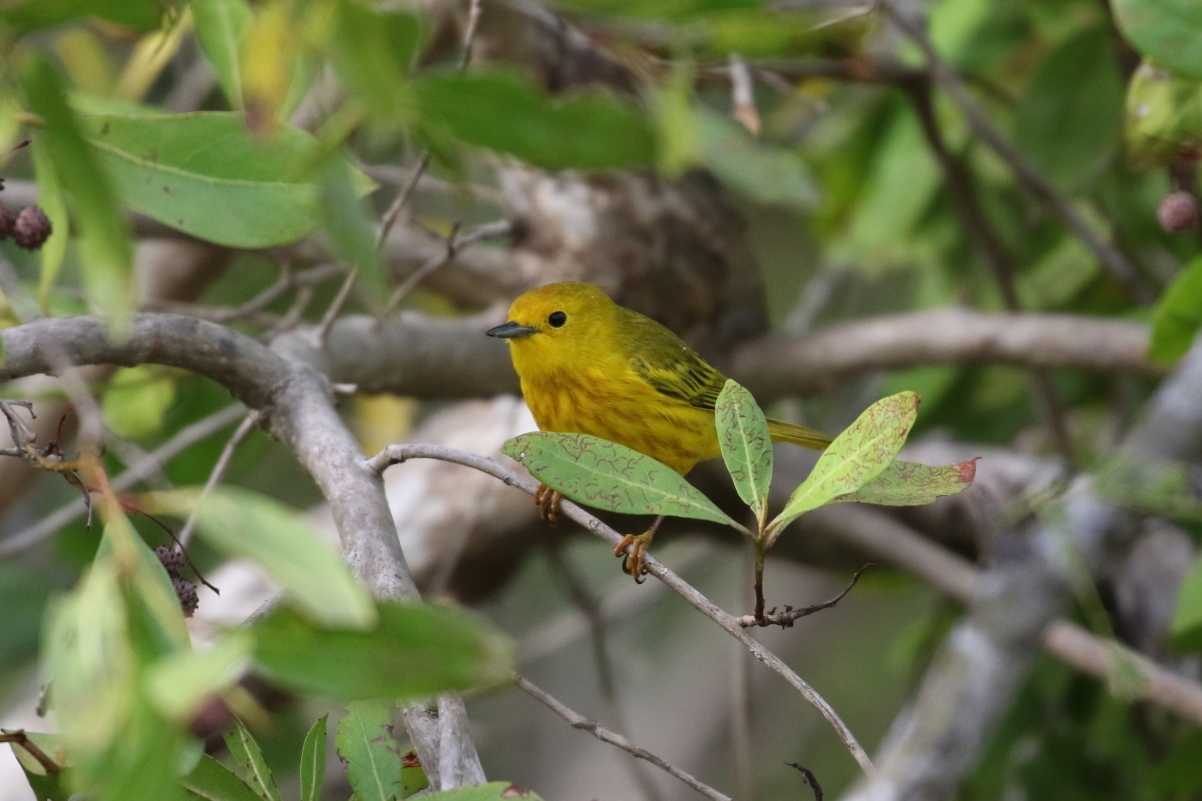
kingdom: Animalia
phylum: Chordata
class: Aves
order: Passeriformes
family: Parulidae
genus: Setophaga
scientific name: Setophaga petechia
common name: Yellow warbler
